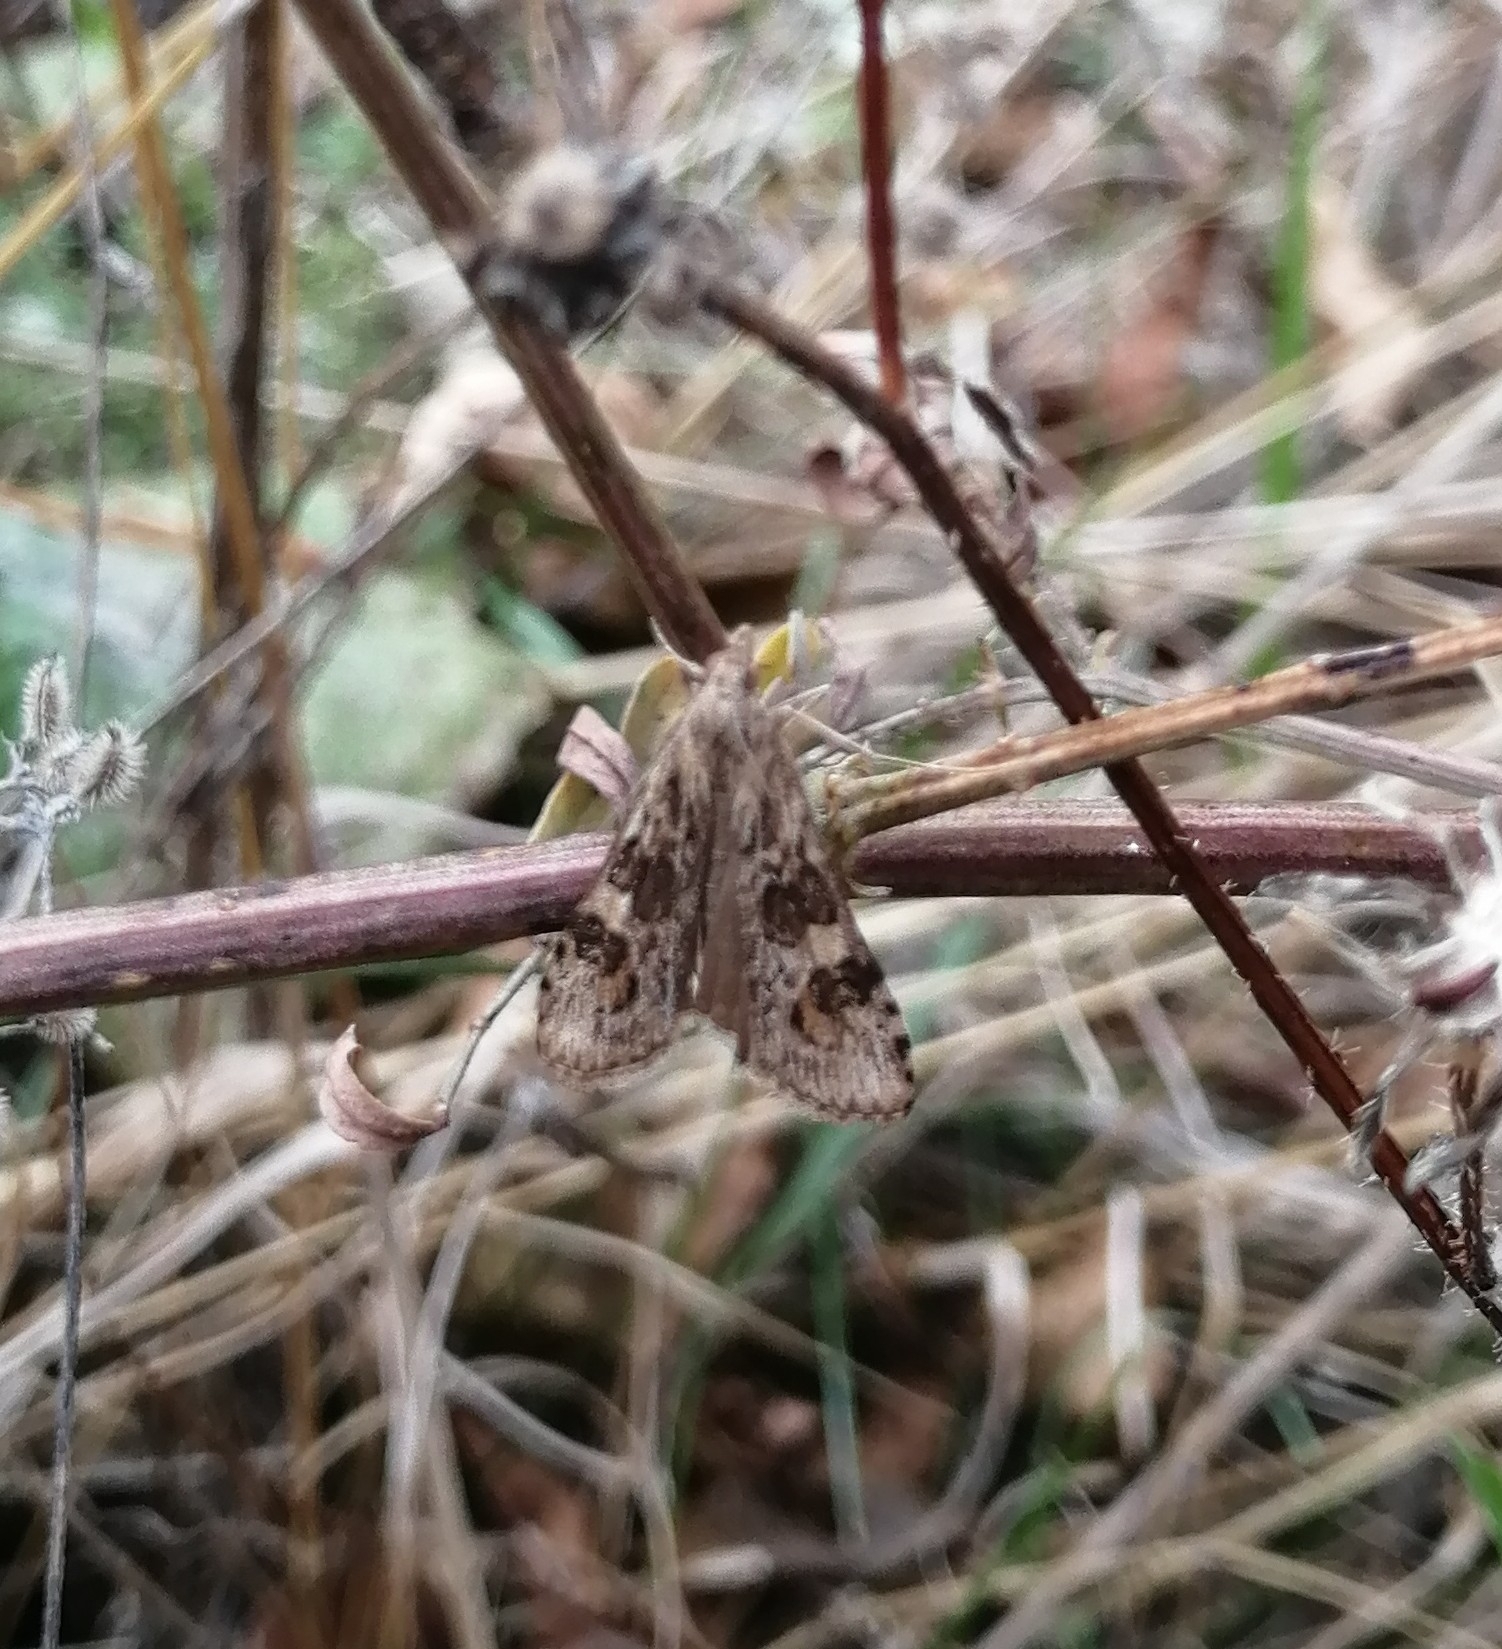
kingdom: Animalia
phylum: Arthropoda
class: Insecta
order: Lepidoptera
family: Crambidae
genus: Nomophila
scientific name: Nomophila noctuella
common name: Rush veneer
